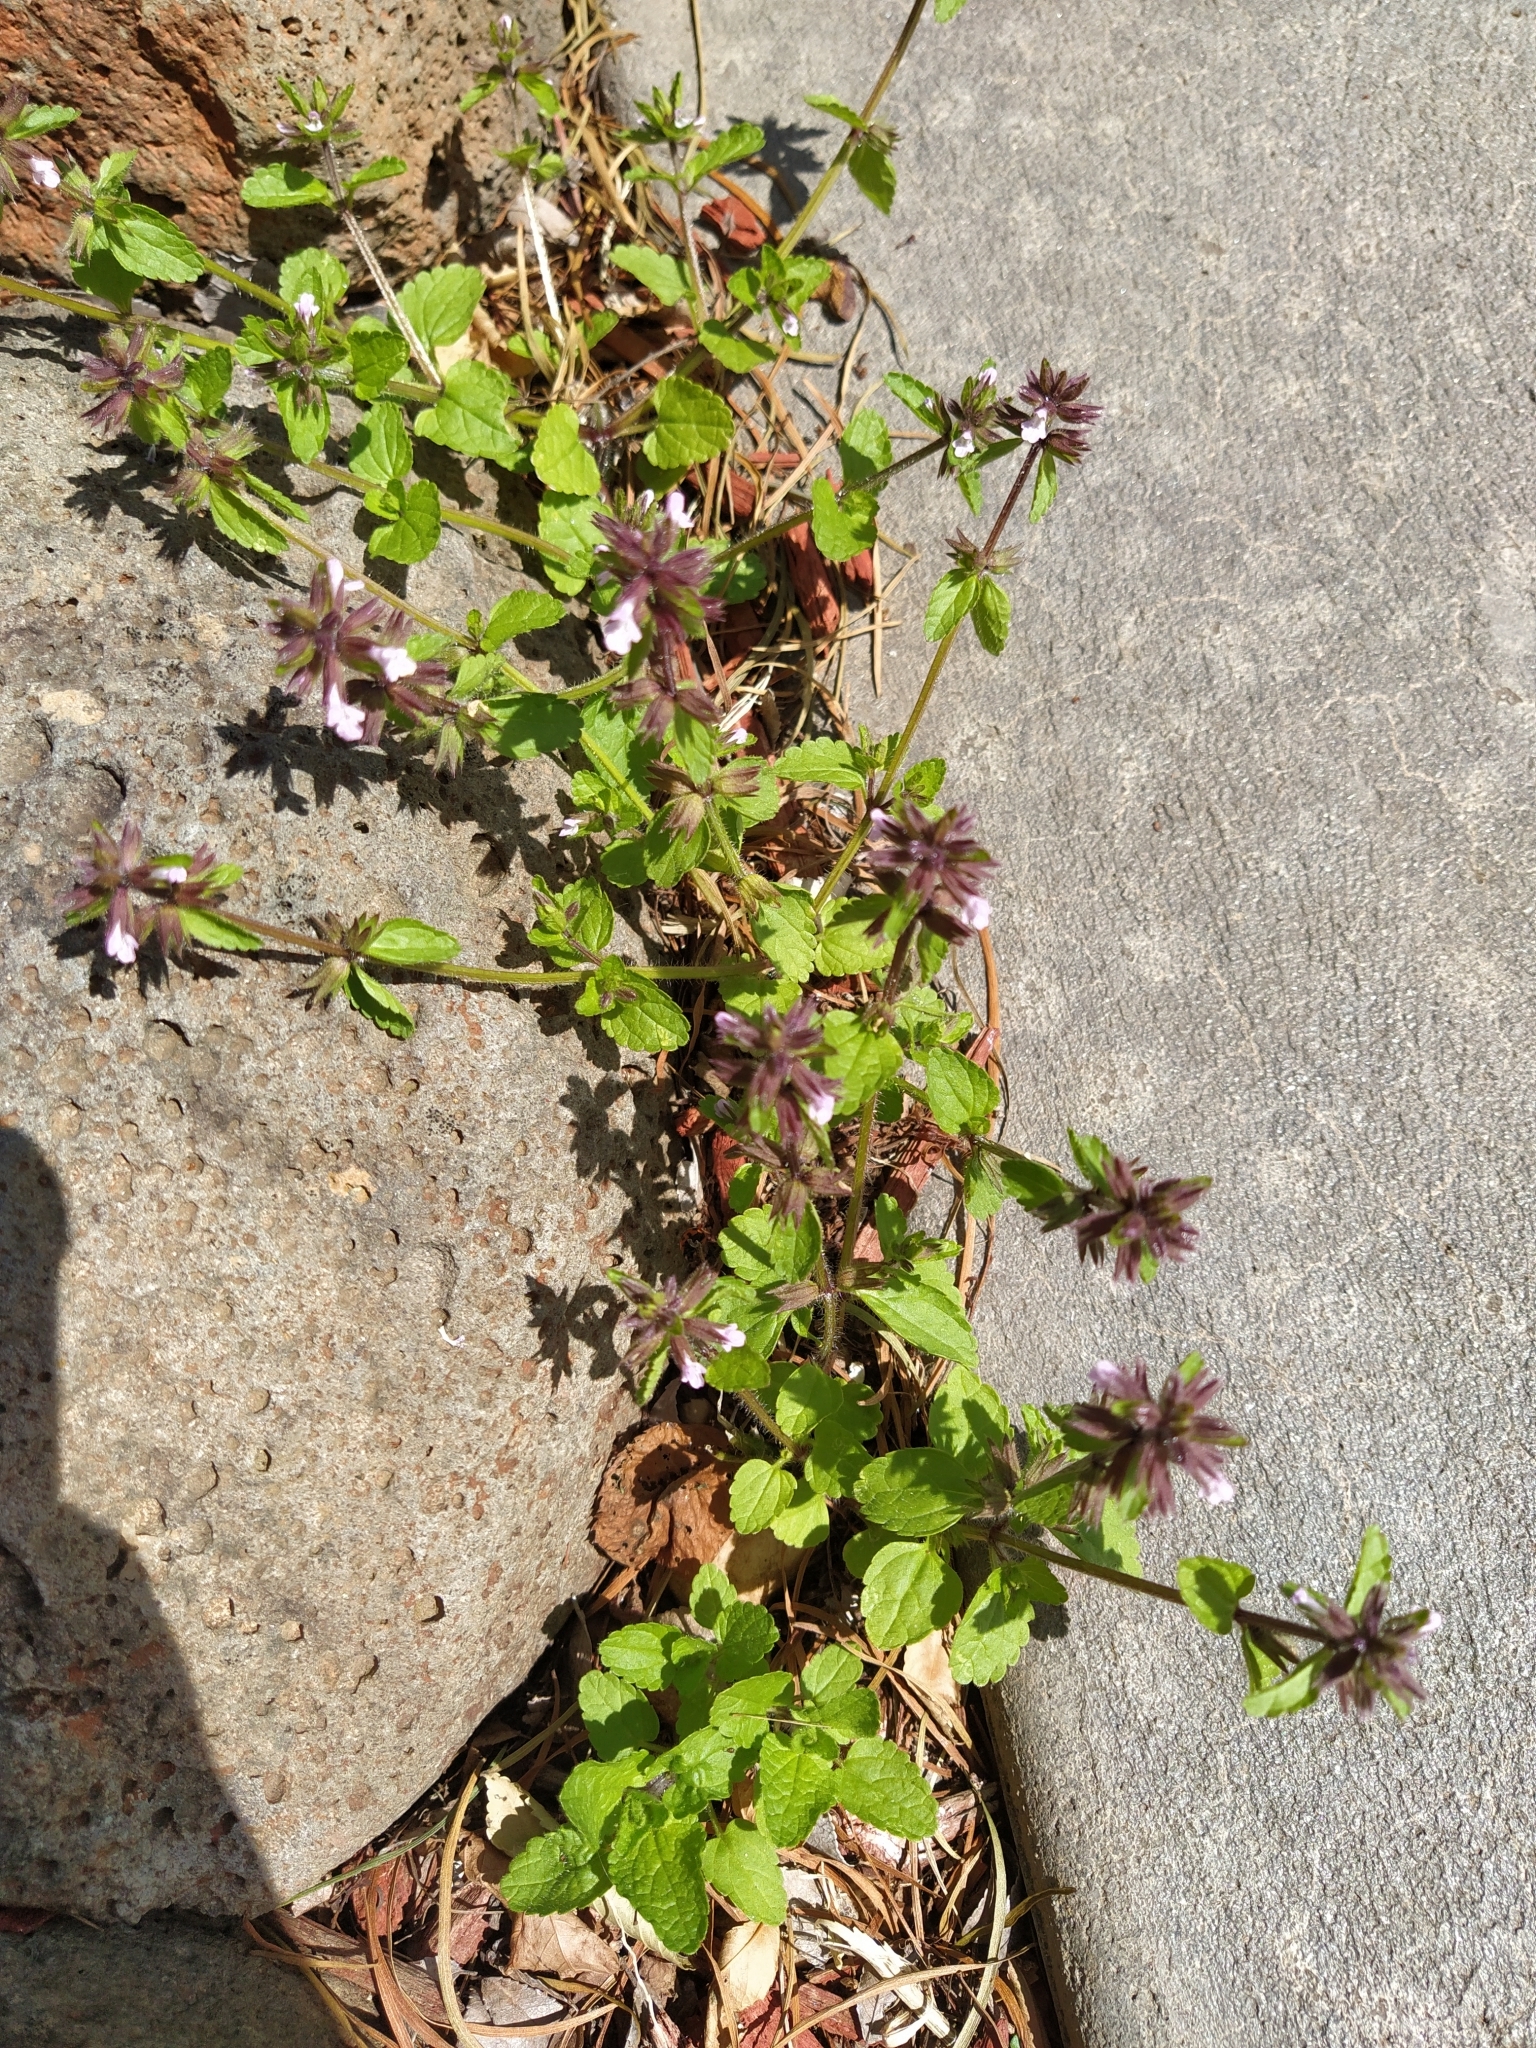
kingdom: Plantae
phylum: Tracheophyta
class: Magnoliopsida
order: Lamiales
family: Lamiaceae
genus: Stachys
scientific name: Stachys arvensis
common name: Field woundwort
